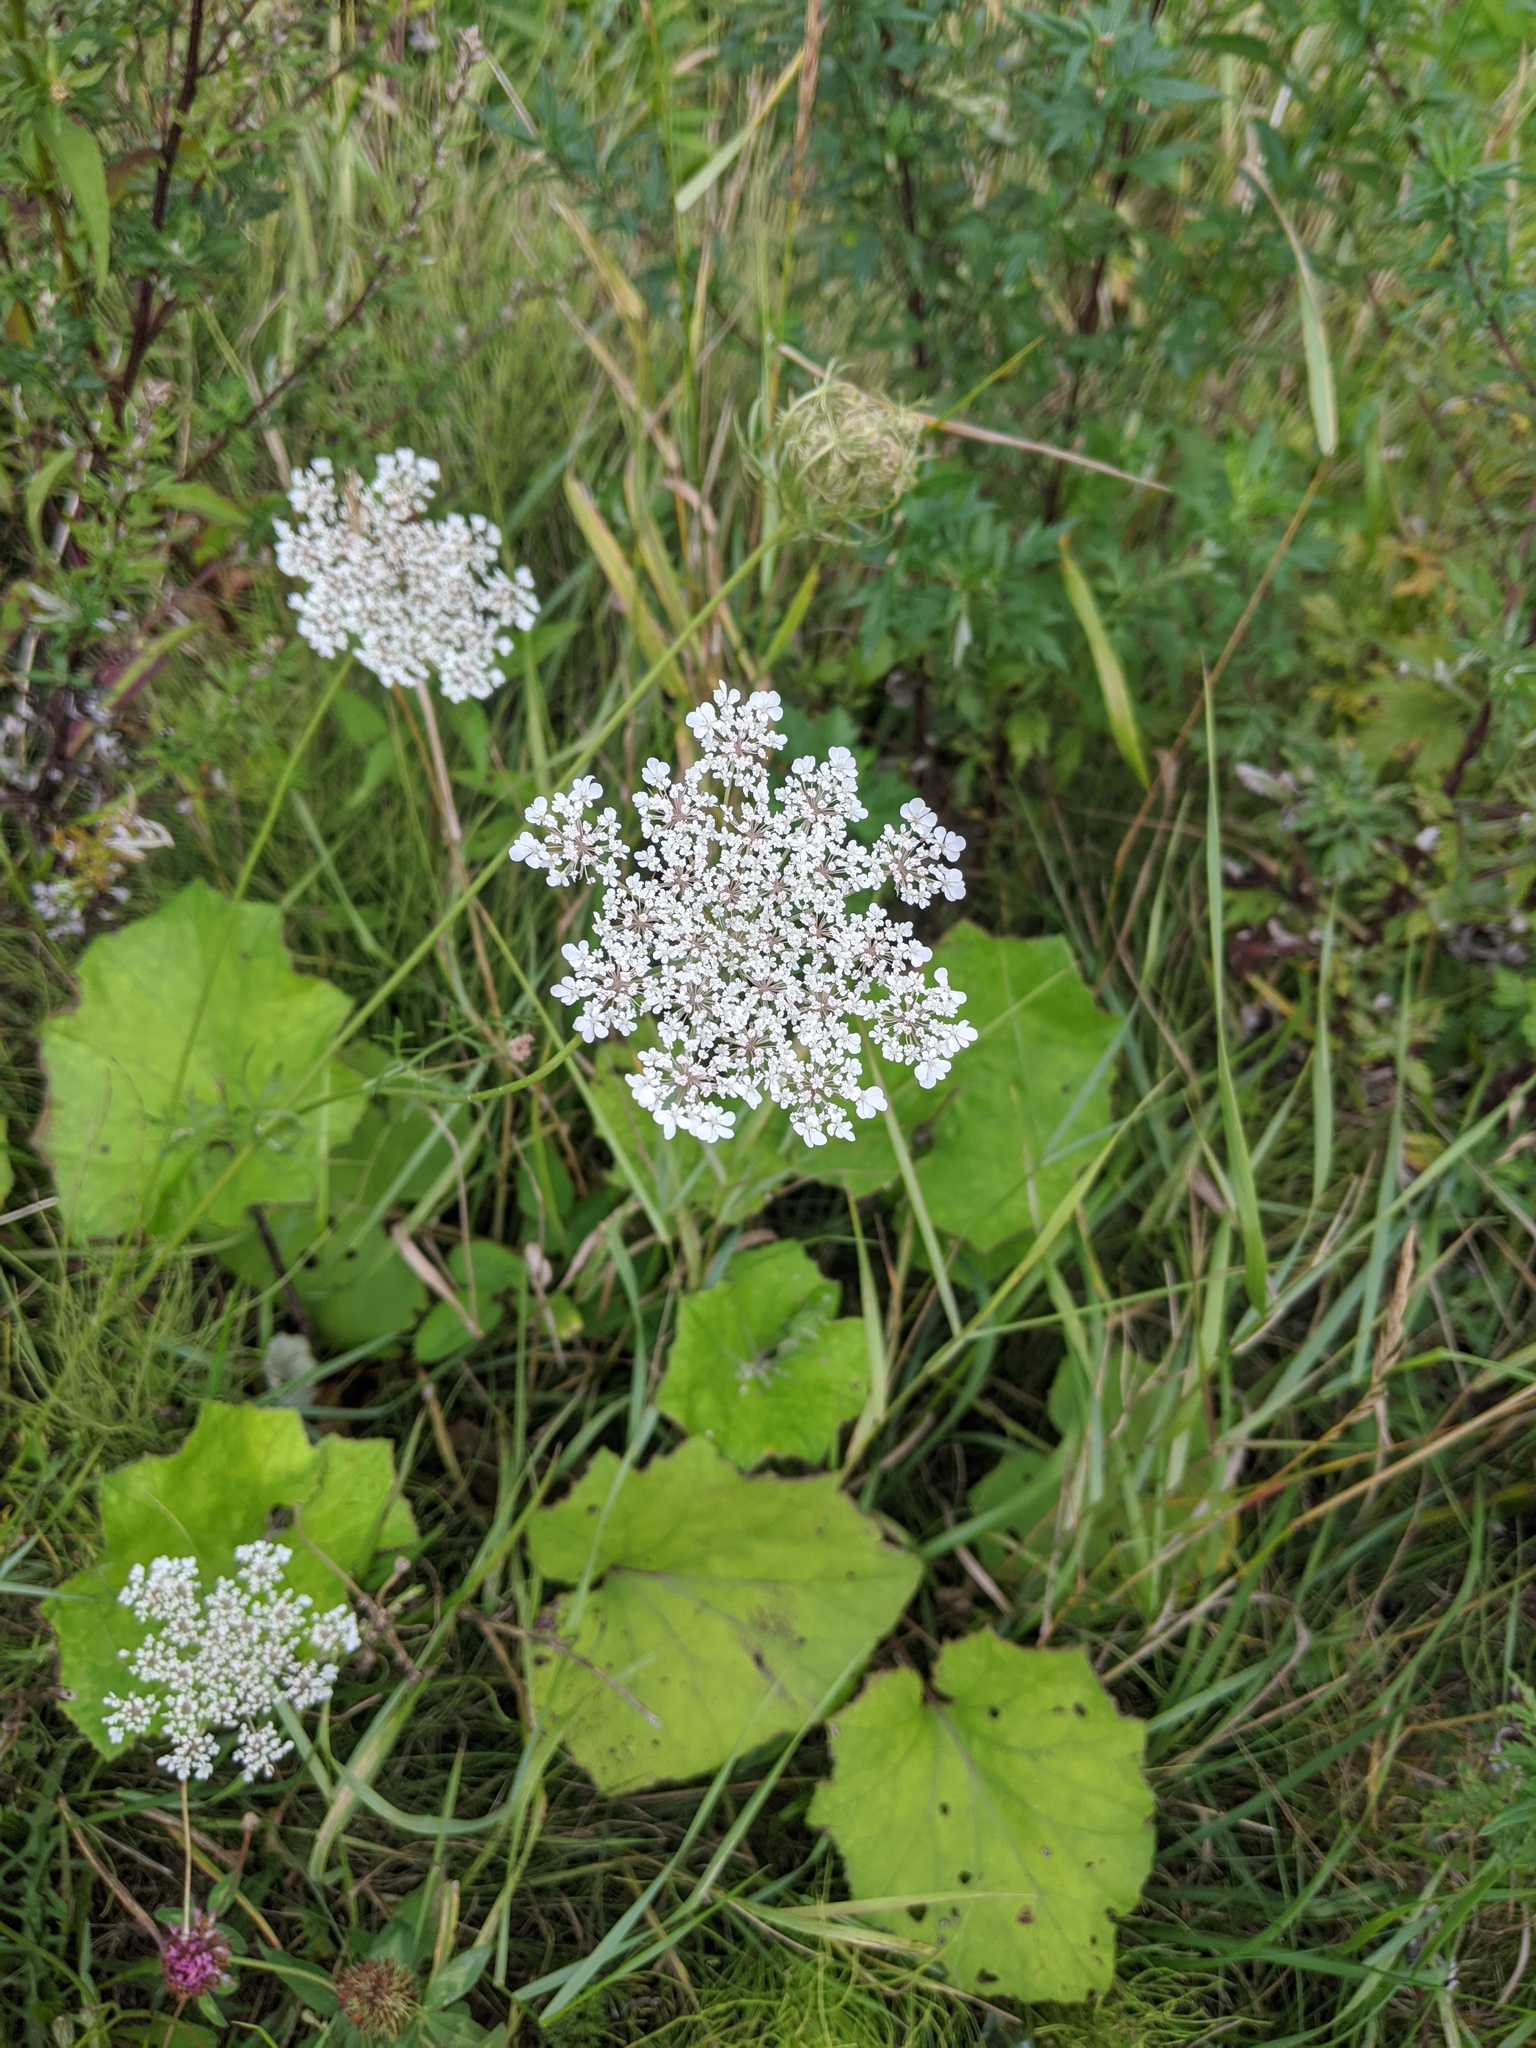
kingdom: Plantae
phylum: Tracheophyta
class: Magnoliopsida
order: Apiales
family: Apiaceae
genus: Daucus
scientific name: Daucus carota
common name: Wild carrot
